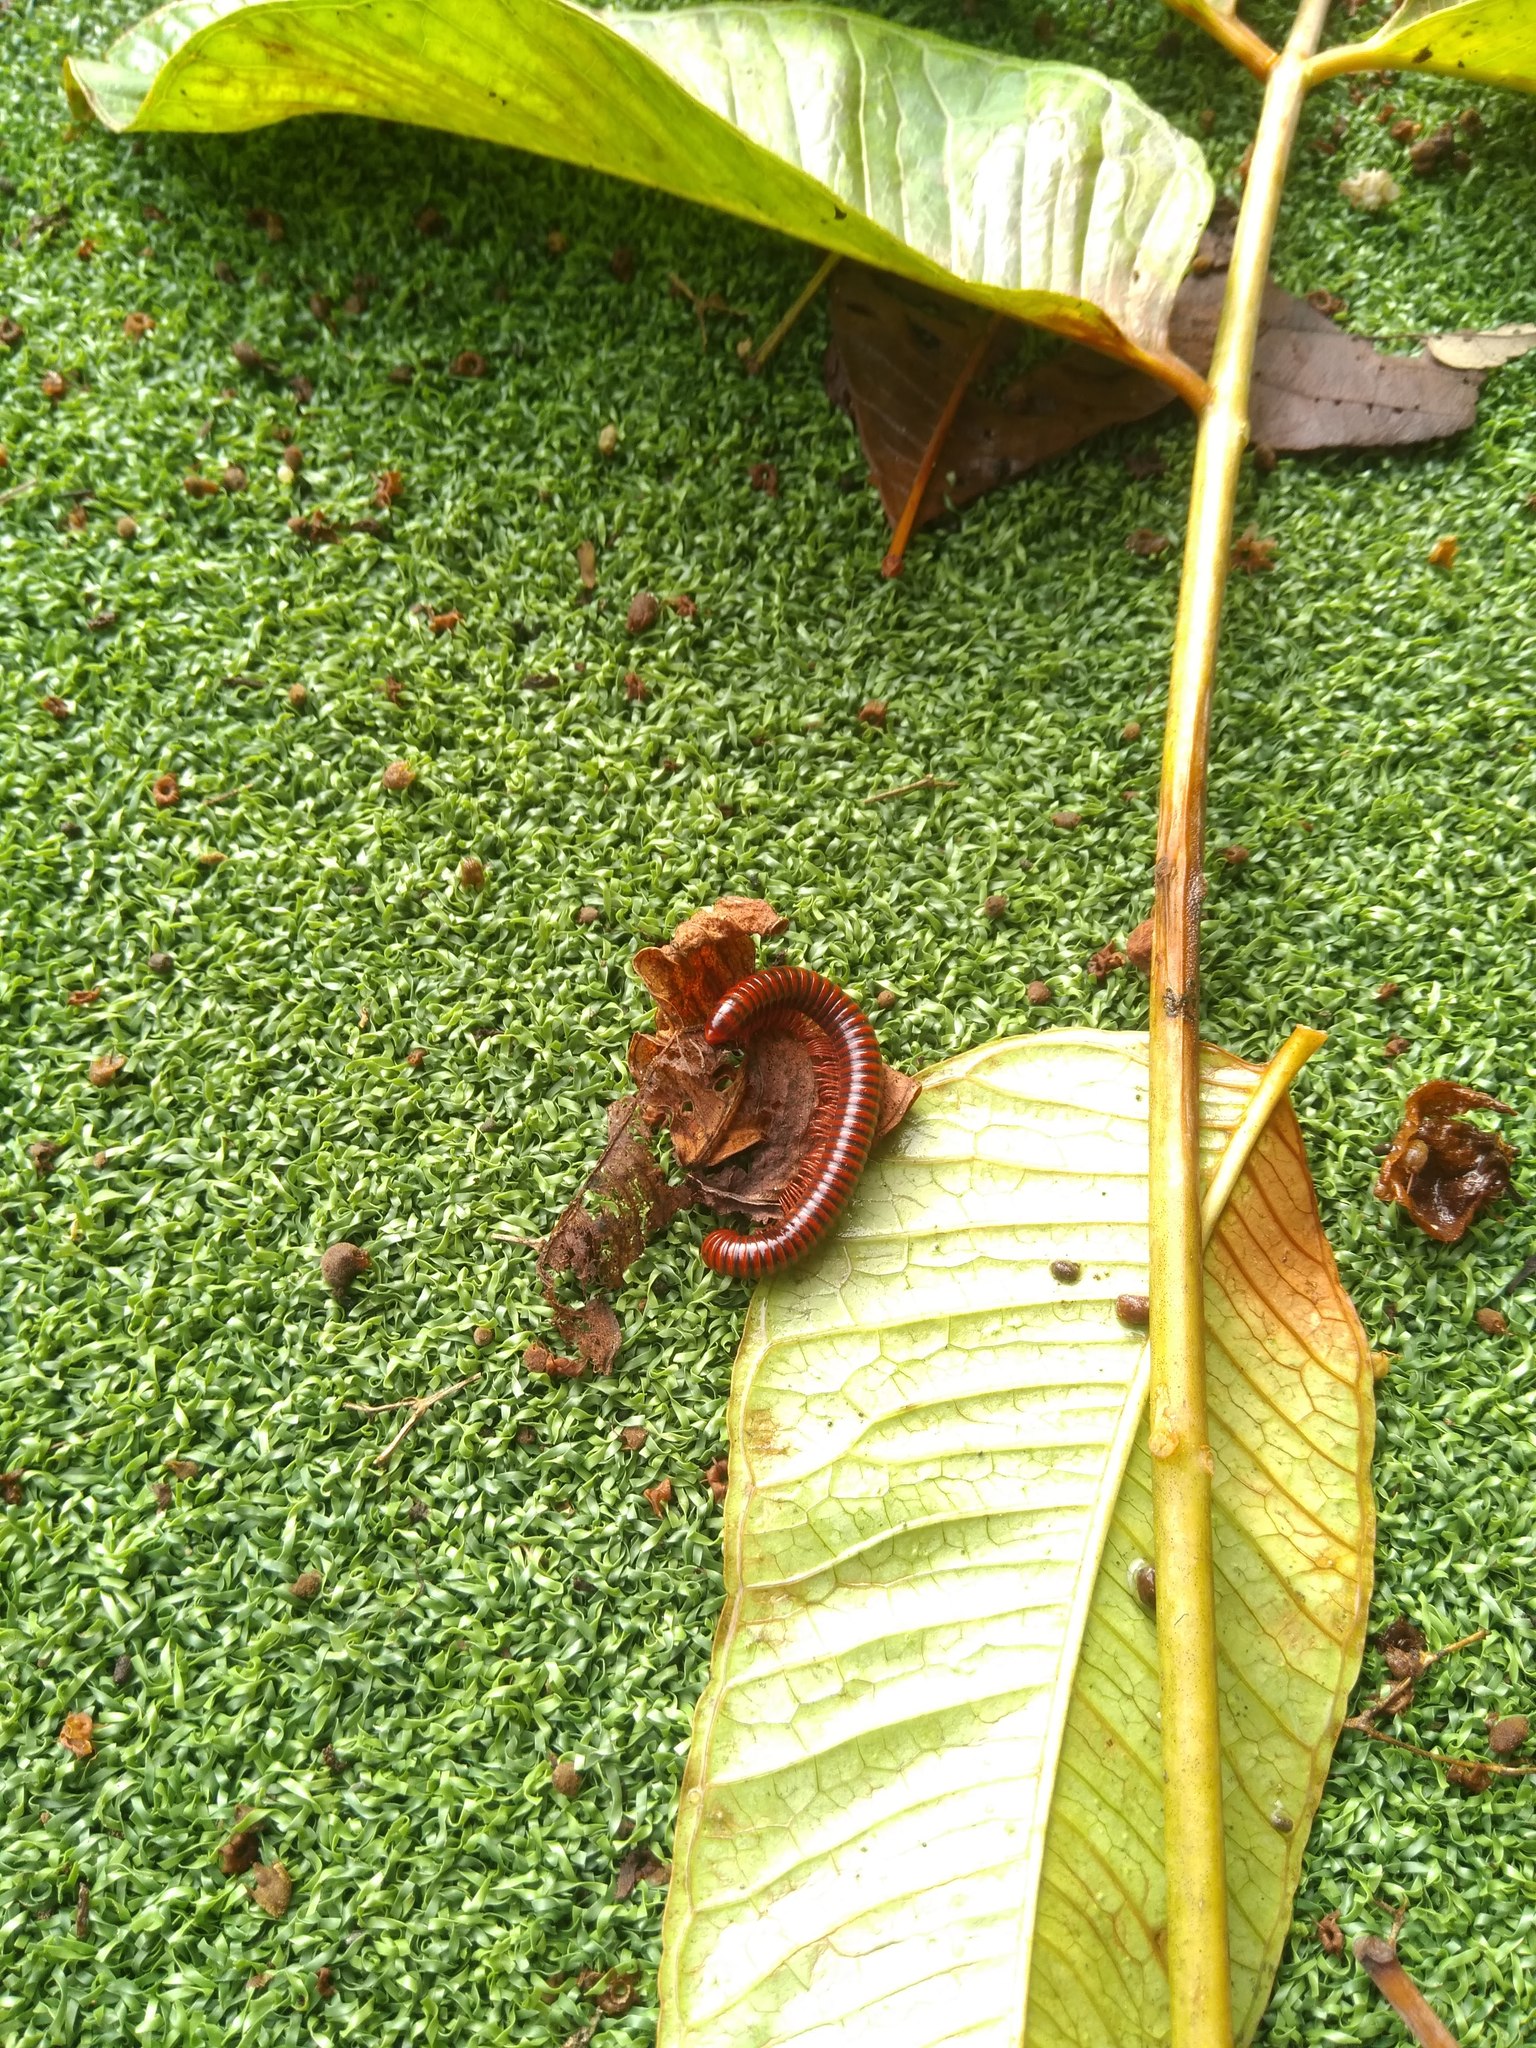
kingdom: Animalia
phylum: Arthropoda
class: Diplopoda
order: Spirobolida
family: Pachybolidae
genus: Trigoniulus
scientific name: Trigoniulus corallinus
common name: Millipede
